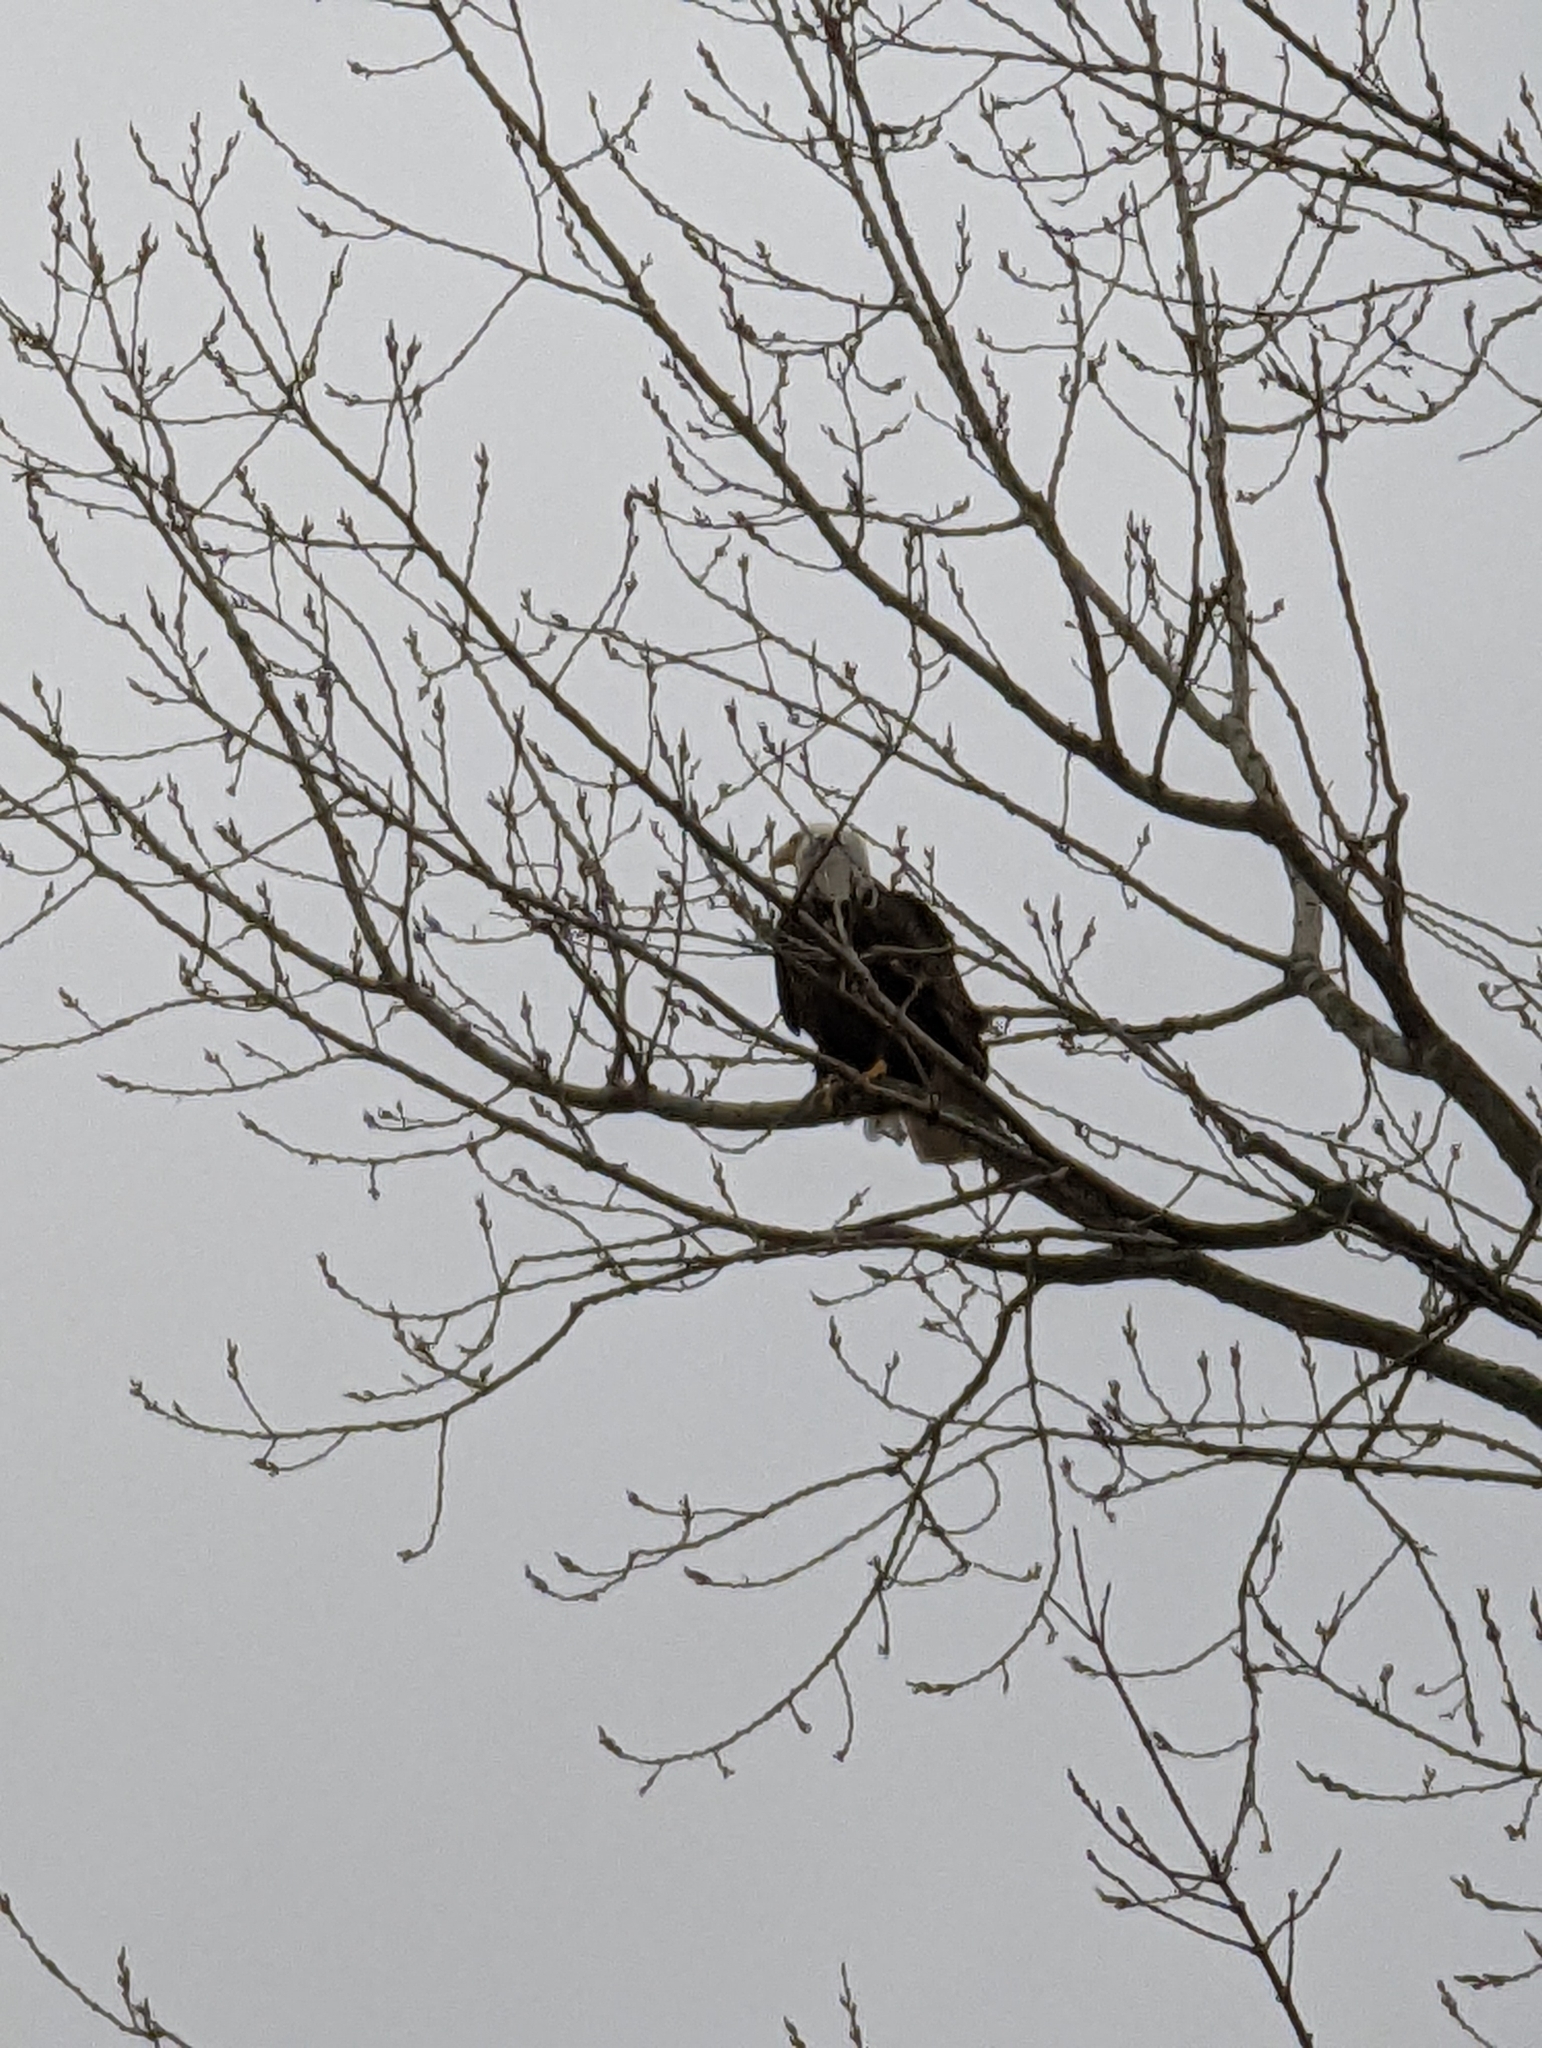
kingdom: Animalia
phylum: Chordata
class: Aves
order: Accipitriformes
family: Accipitridae
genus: Haliaeetus
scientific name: Haliaeetus leucocephalus
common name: Bald eagle
